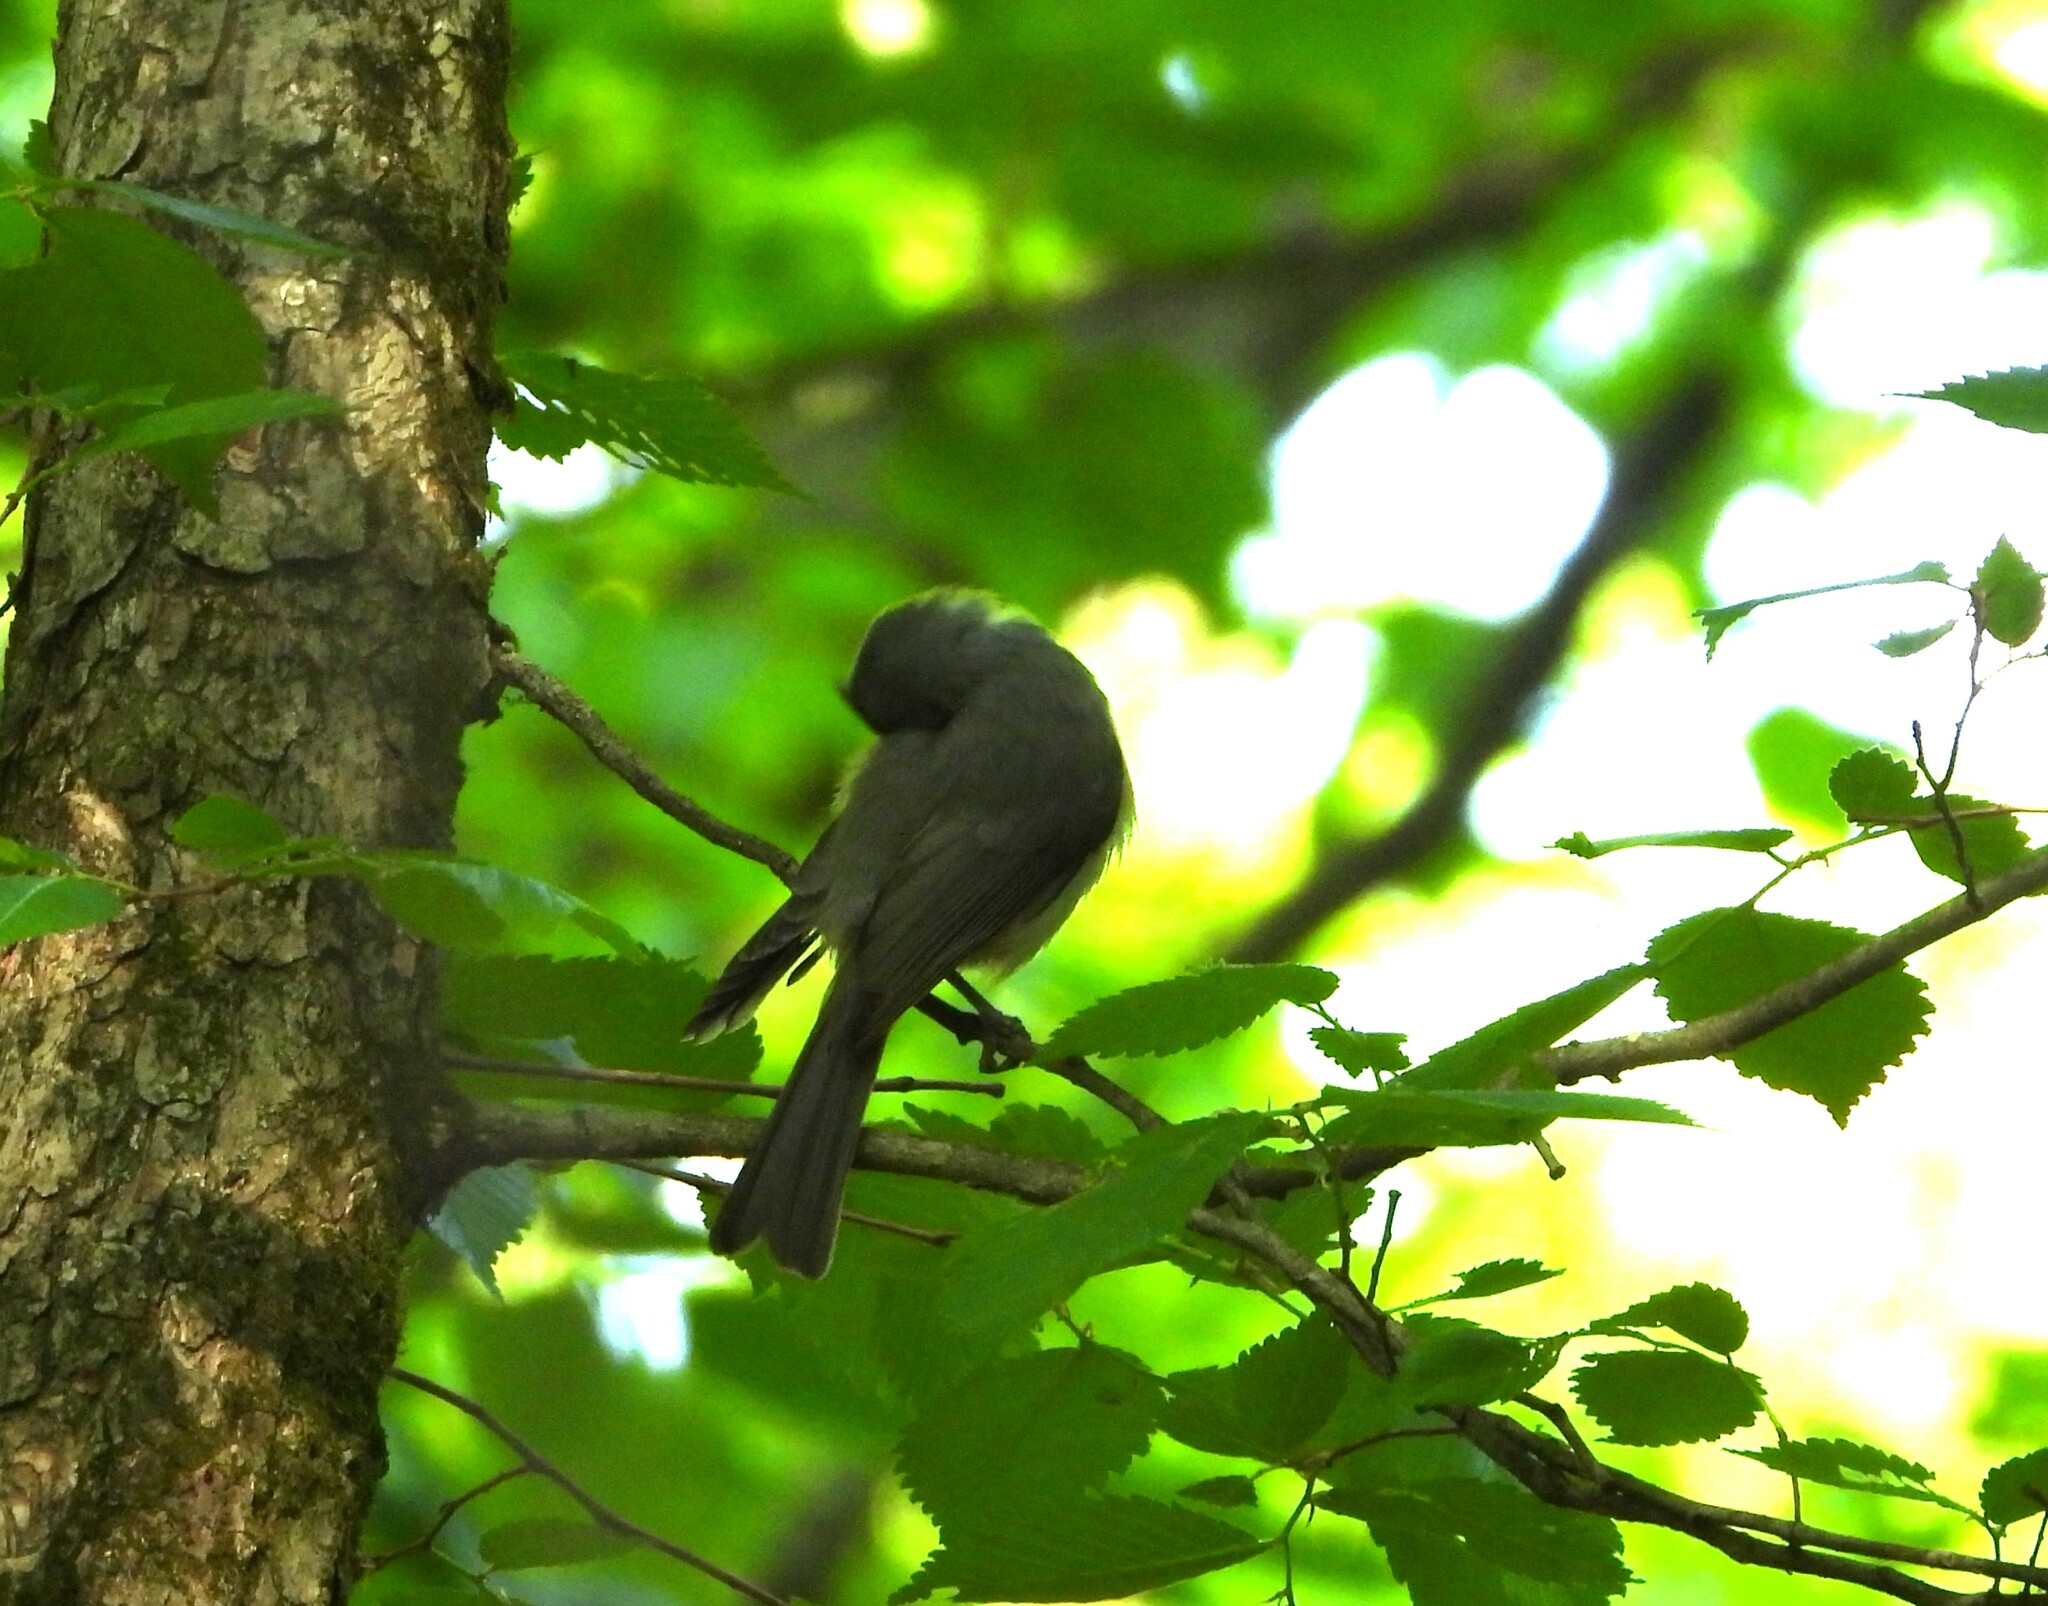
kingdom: Animalia
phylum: Chordata
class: Aves
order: Passeriformes
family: Paridae
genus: Baeolophus
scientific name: Baeolophus bicolor
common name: Tufted titmouse
